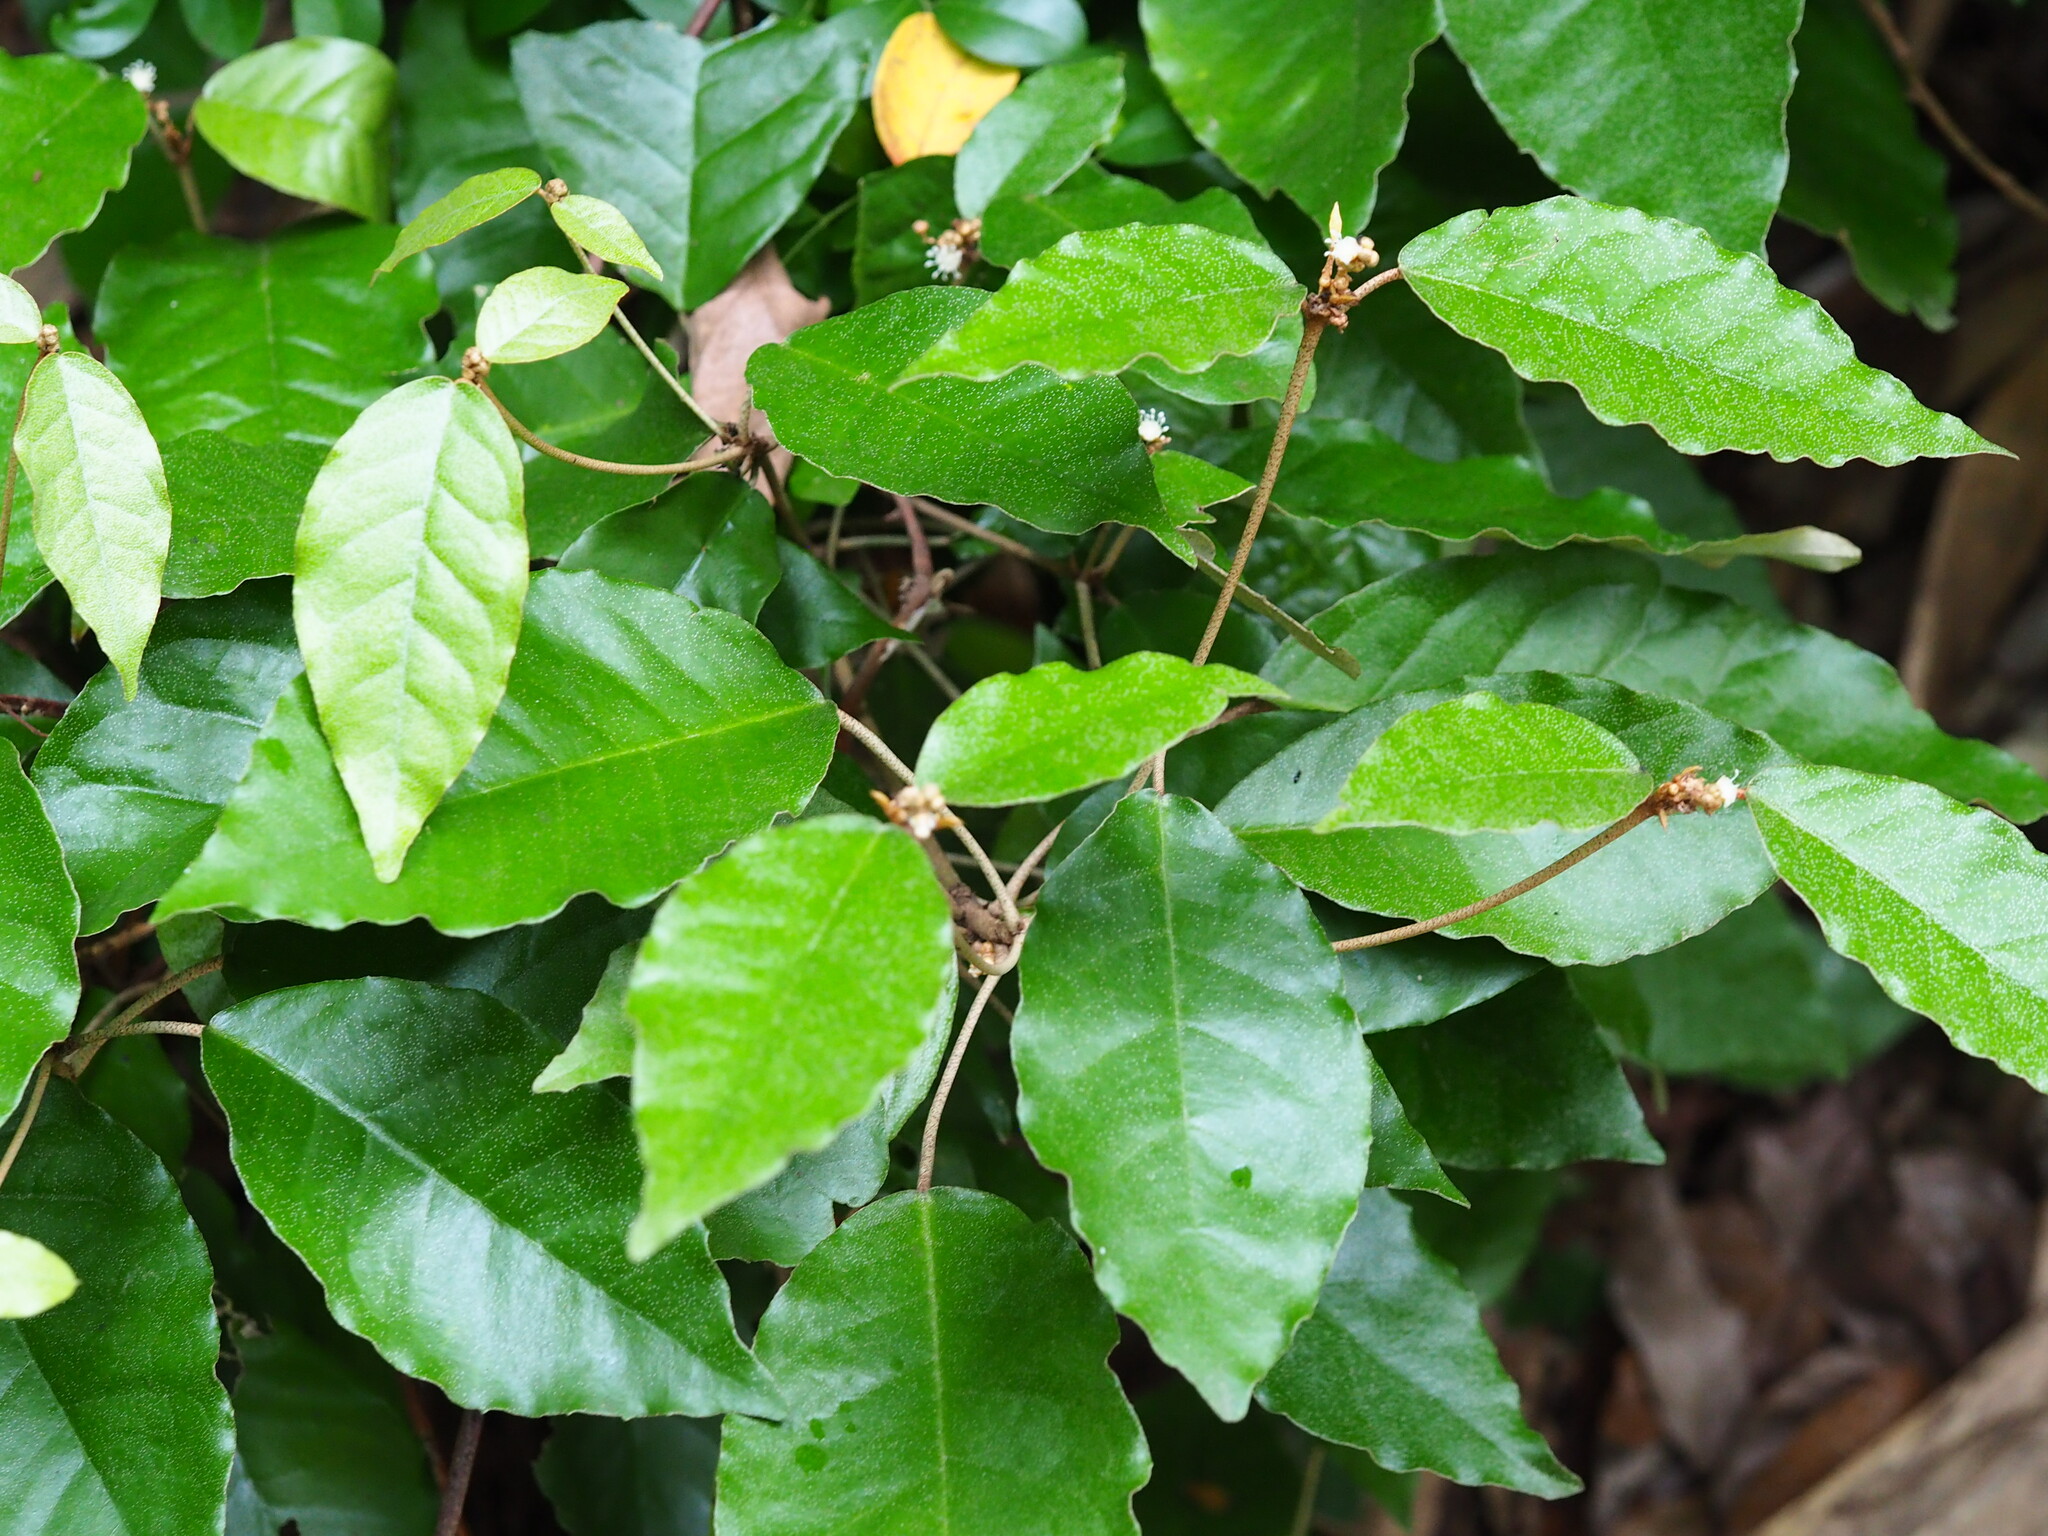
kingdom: Plantae
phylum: Tracheophyta
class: Magnoliopsida
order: Malpighiales
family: Euphorbiaceae
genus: Croton
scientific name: Croton cascarilloides
